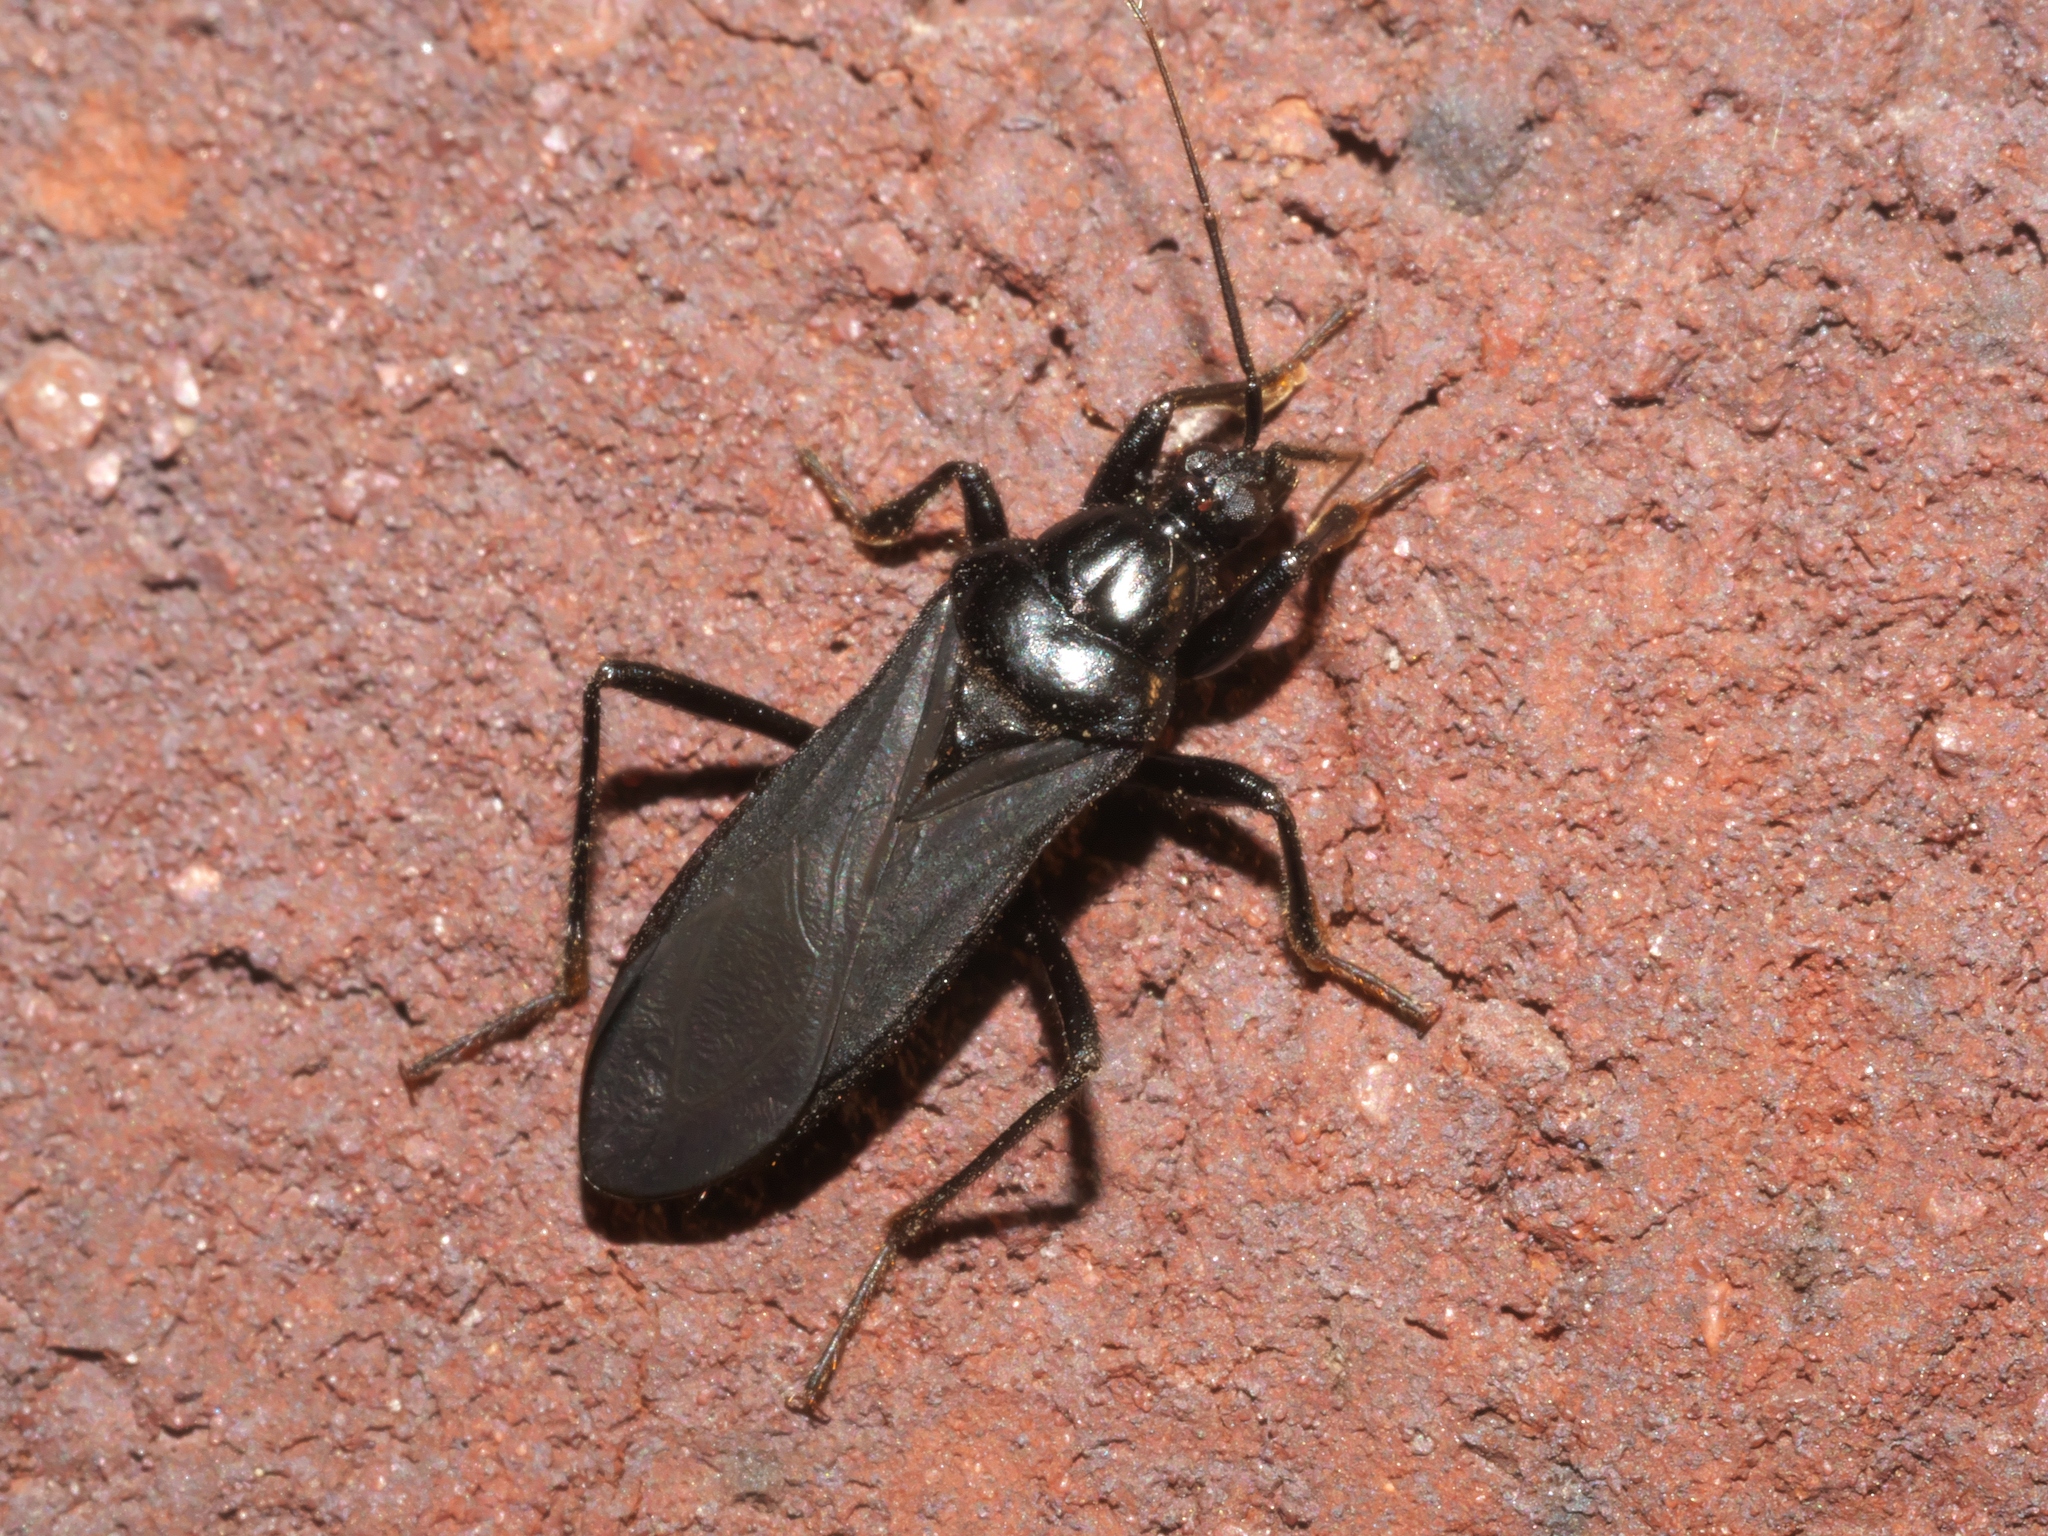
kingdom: Animalia
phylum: Arthropoda
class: Insecta
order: Hemiptera
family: Reduviidae
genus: Melanolestes
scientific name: Melanolestes picipes
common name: Assassin bug
